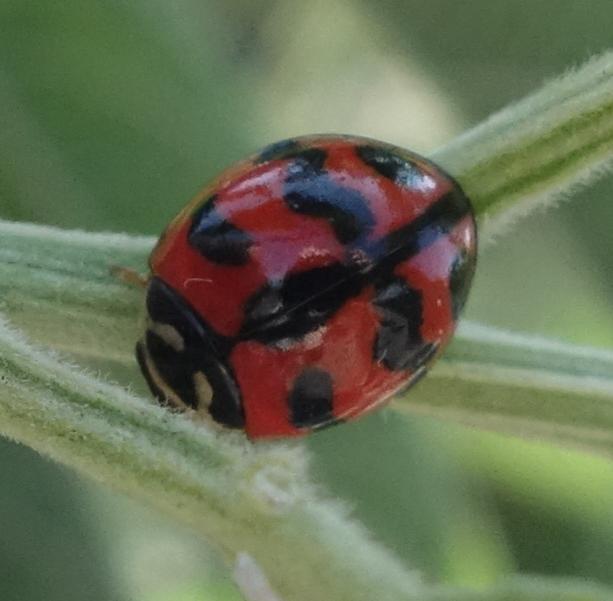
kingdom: Animalia
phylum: Arthropoda
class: Insecta
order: Coleoptera
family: Coccinellidae
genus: Cheilomenes
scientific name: Cheilomenes sexmaculata
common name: Ladybird beetle
